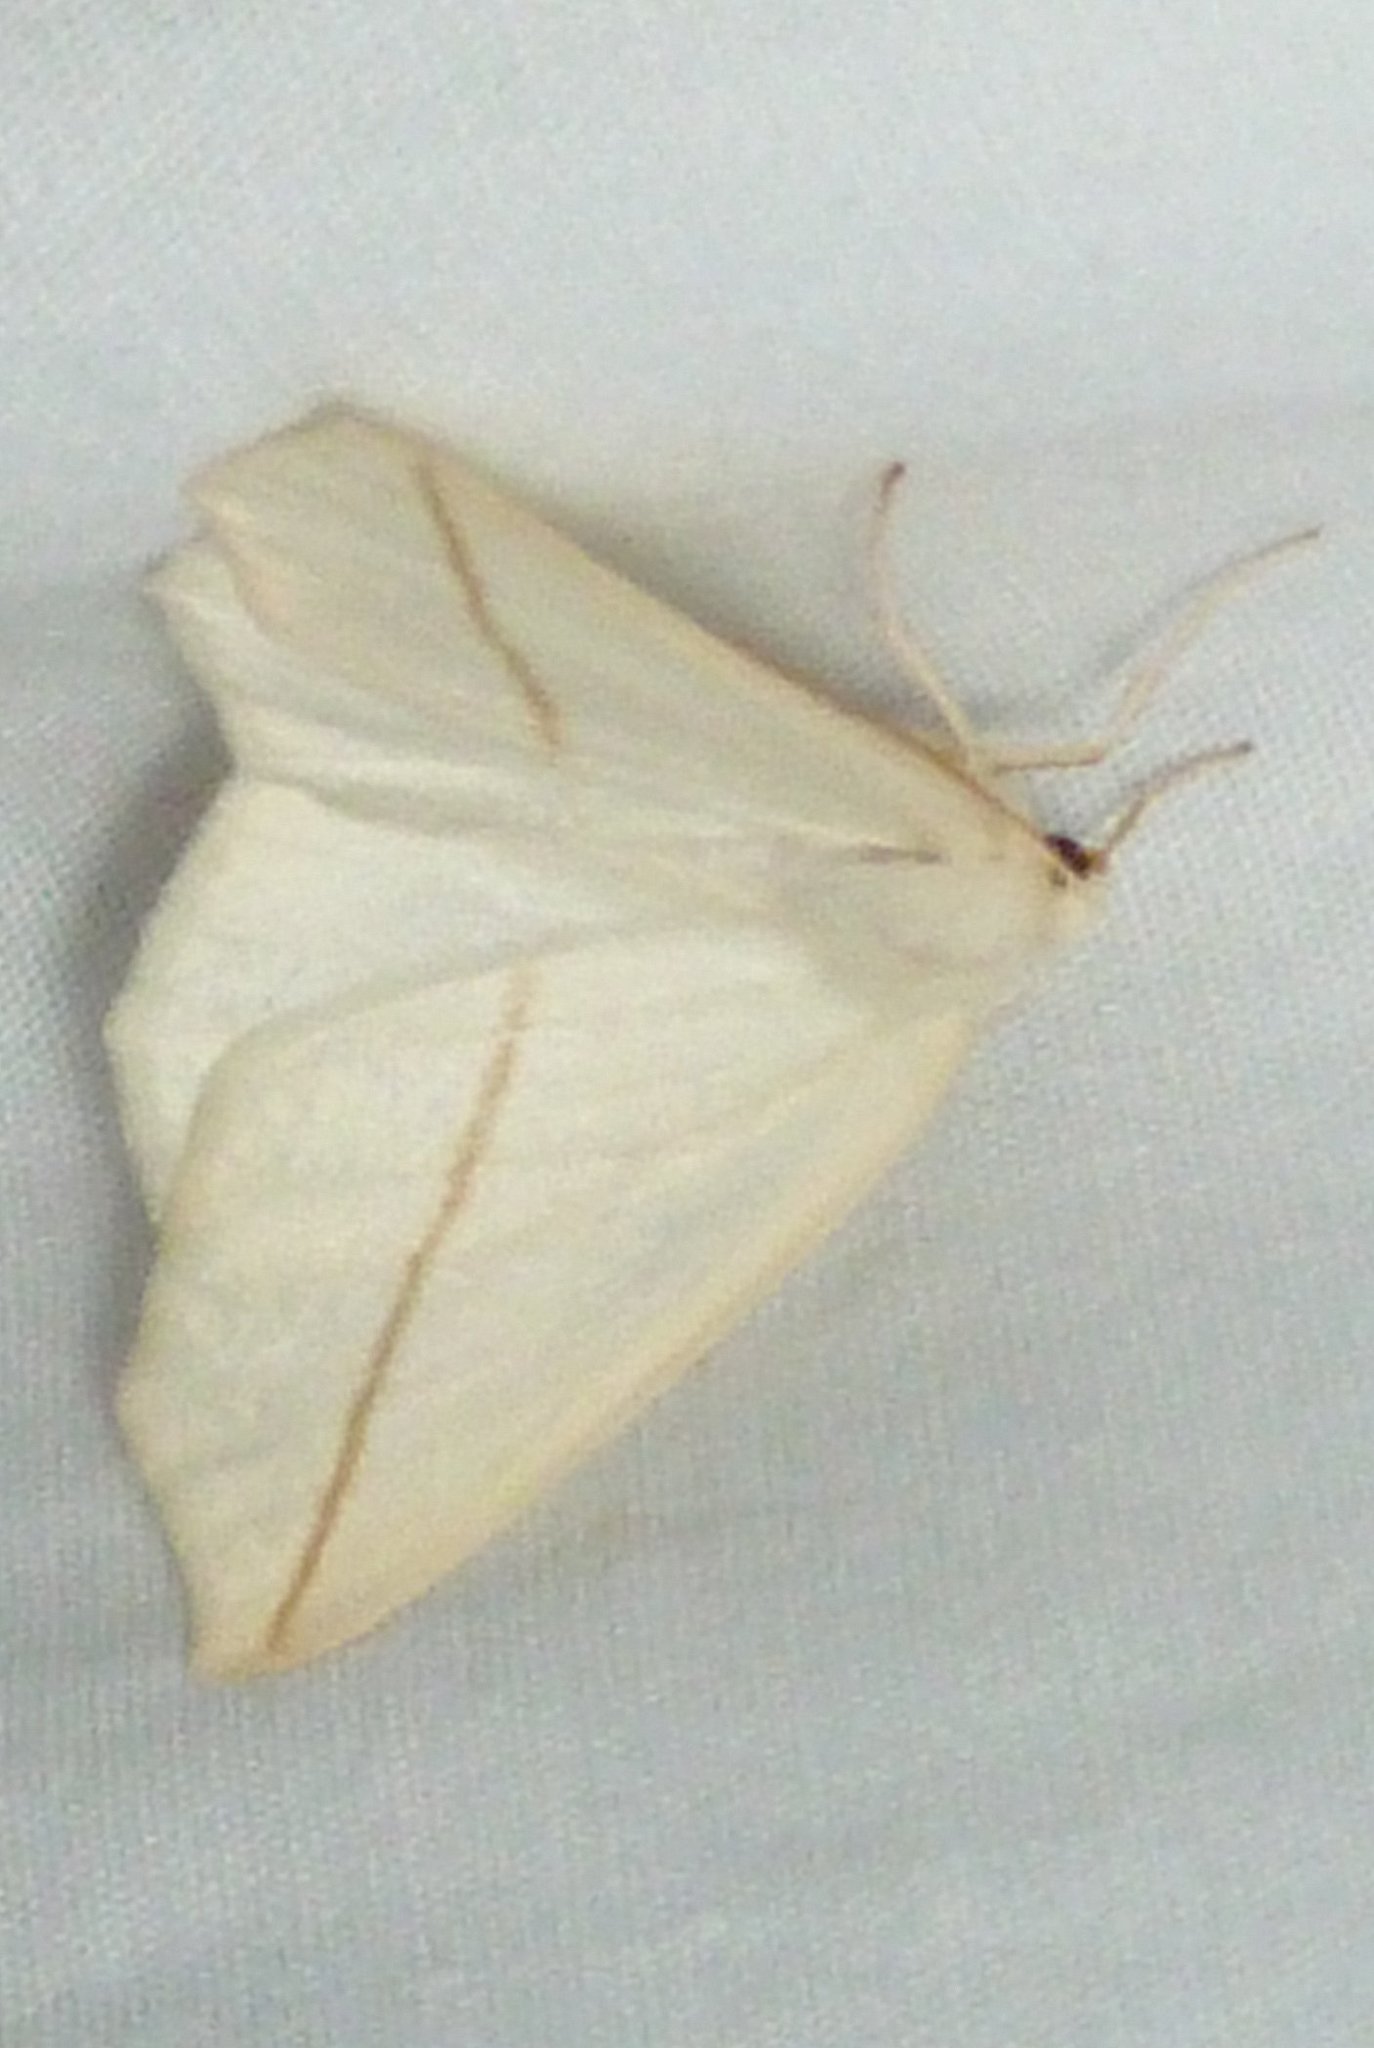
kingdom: Animalia
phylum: Arthropoda
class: Insecta
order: Lepidoptera
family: Geometridae
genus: Tetracis
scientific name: Tetracis cachexiata
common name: White slant-line
